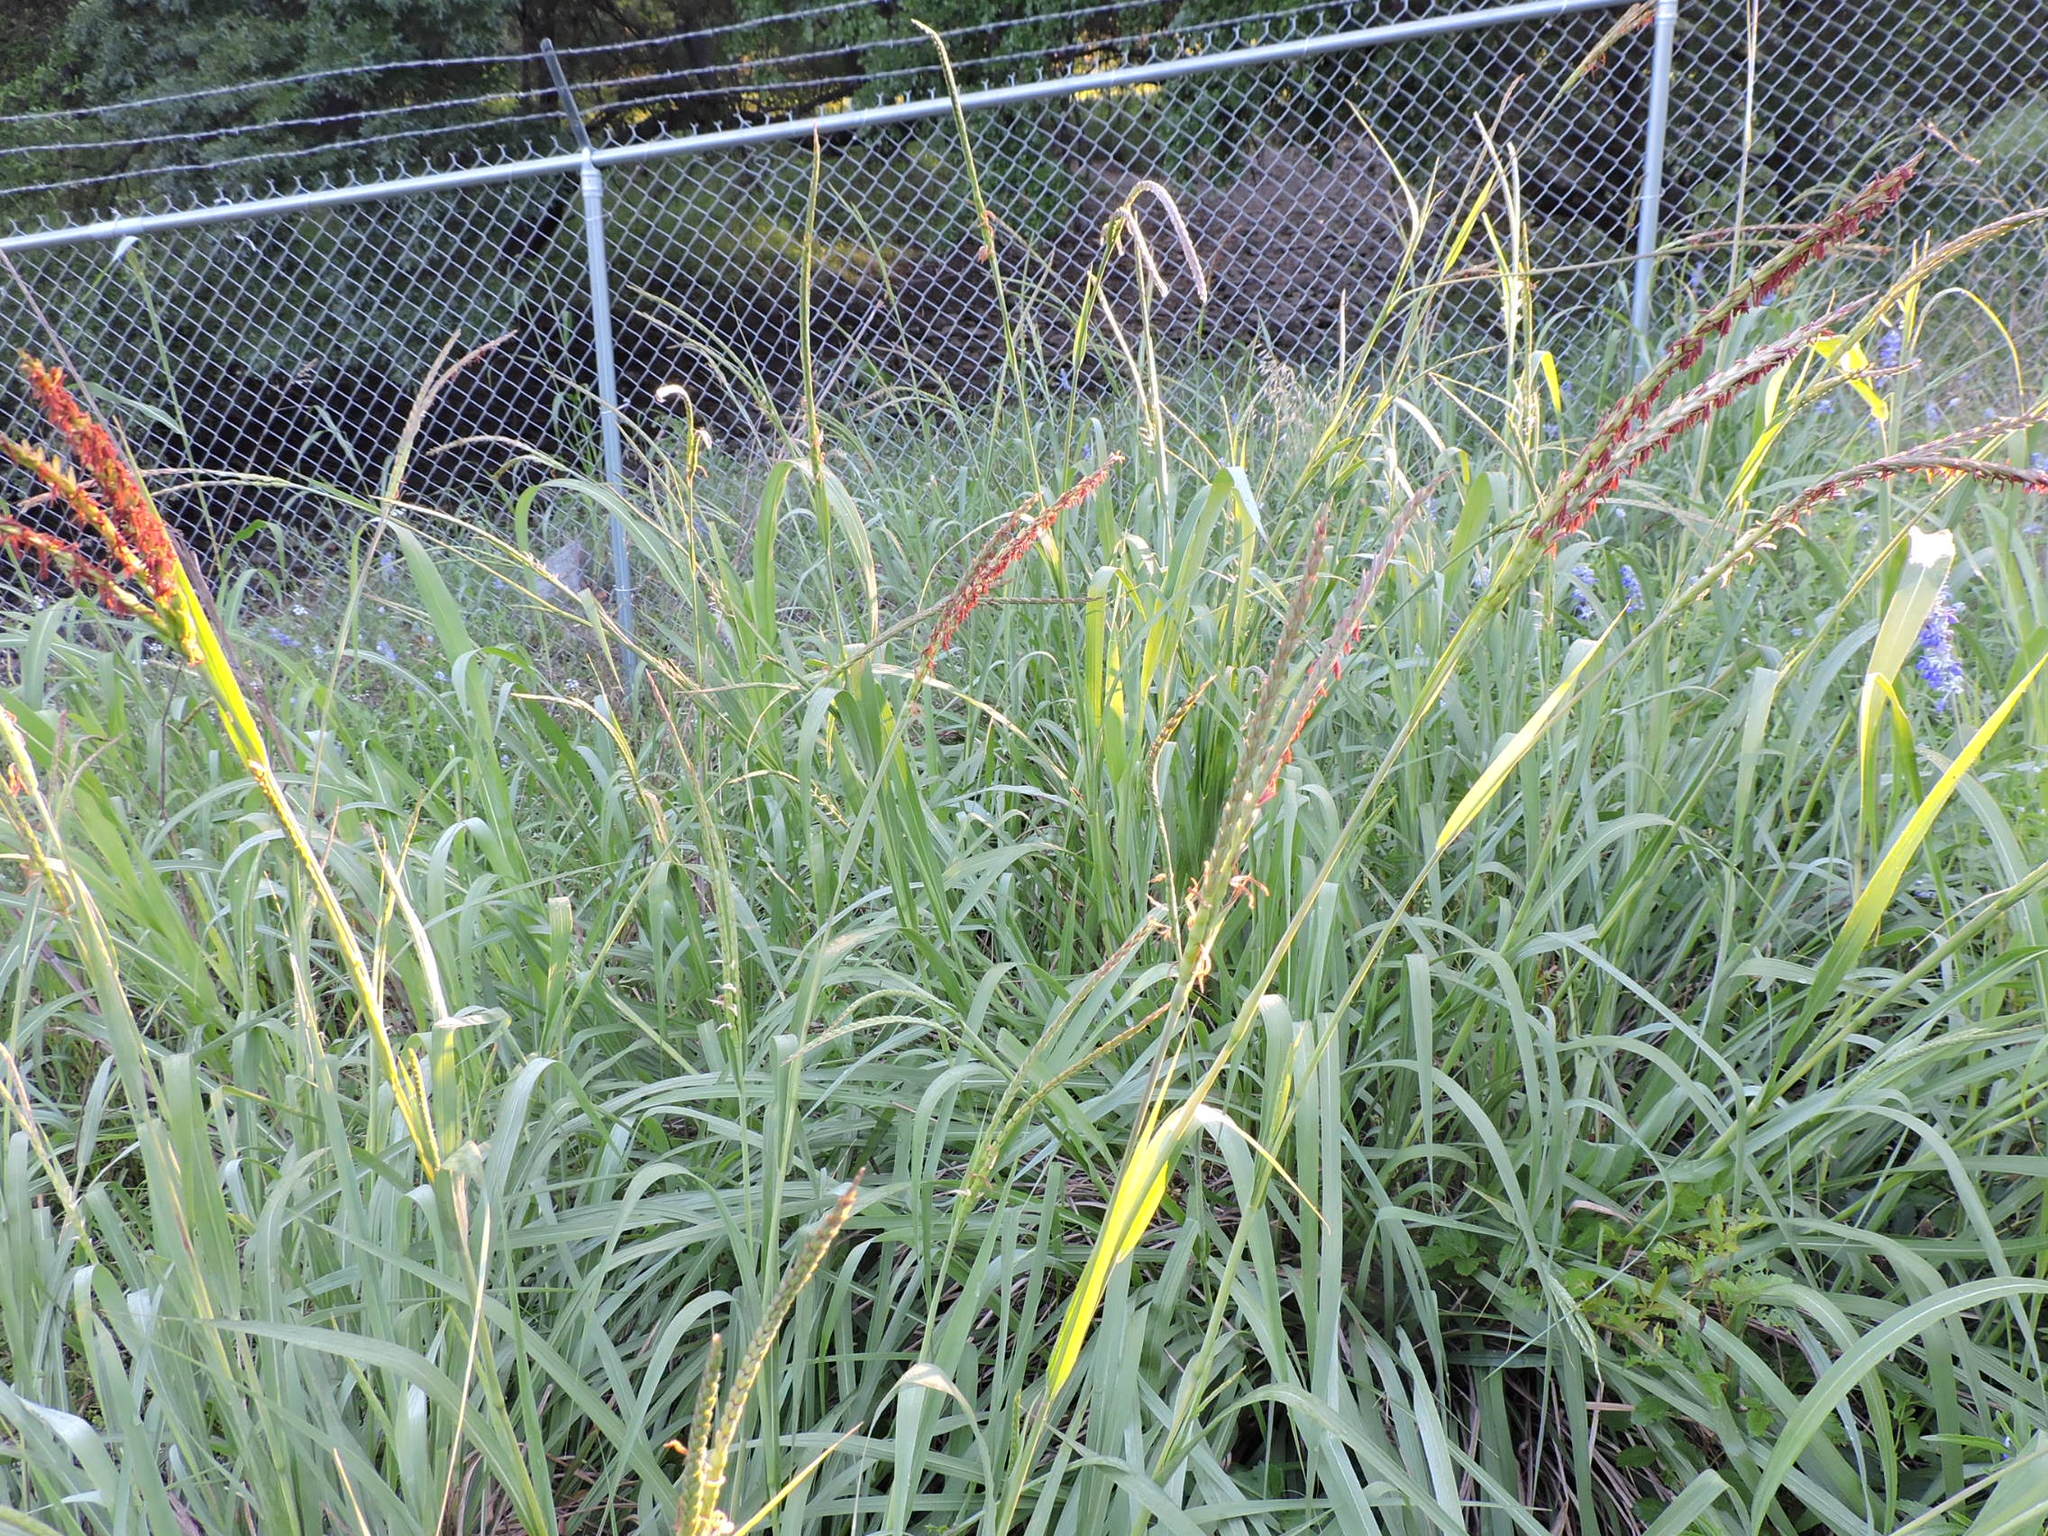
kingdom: Plantae
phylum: Tracheophyta
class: Liliopsida
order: Poales
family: Poaceae
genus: Tripsacum
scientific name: Tripsacum dactyloides
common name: Buffalo-grass
